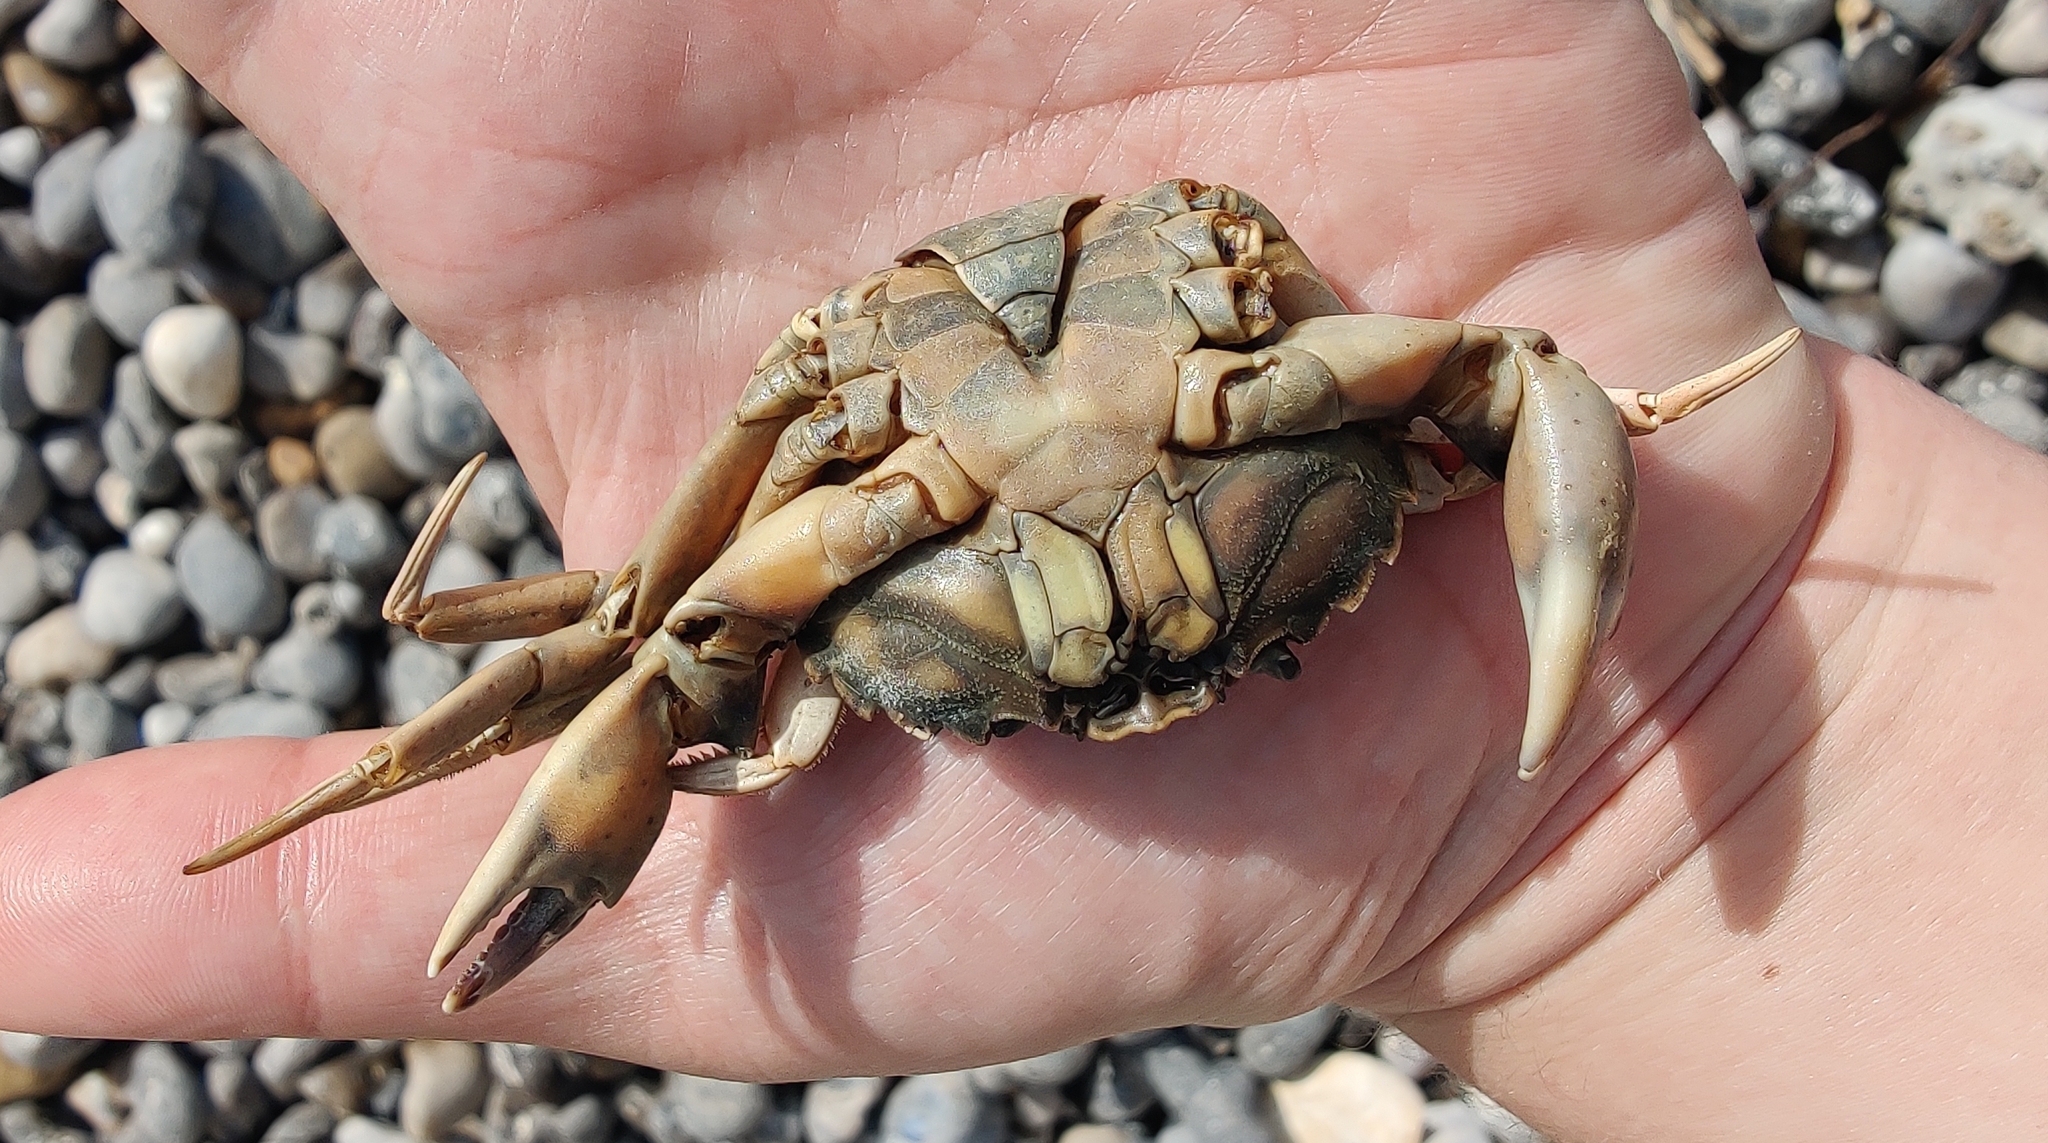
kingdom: Animalia
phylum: Arthropoda
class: Malacostraca
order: Decapoda
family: Carcinidae
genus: Carcinus
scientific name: Carcinus maenas
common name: European green crab
